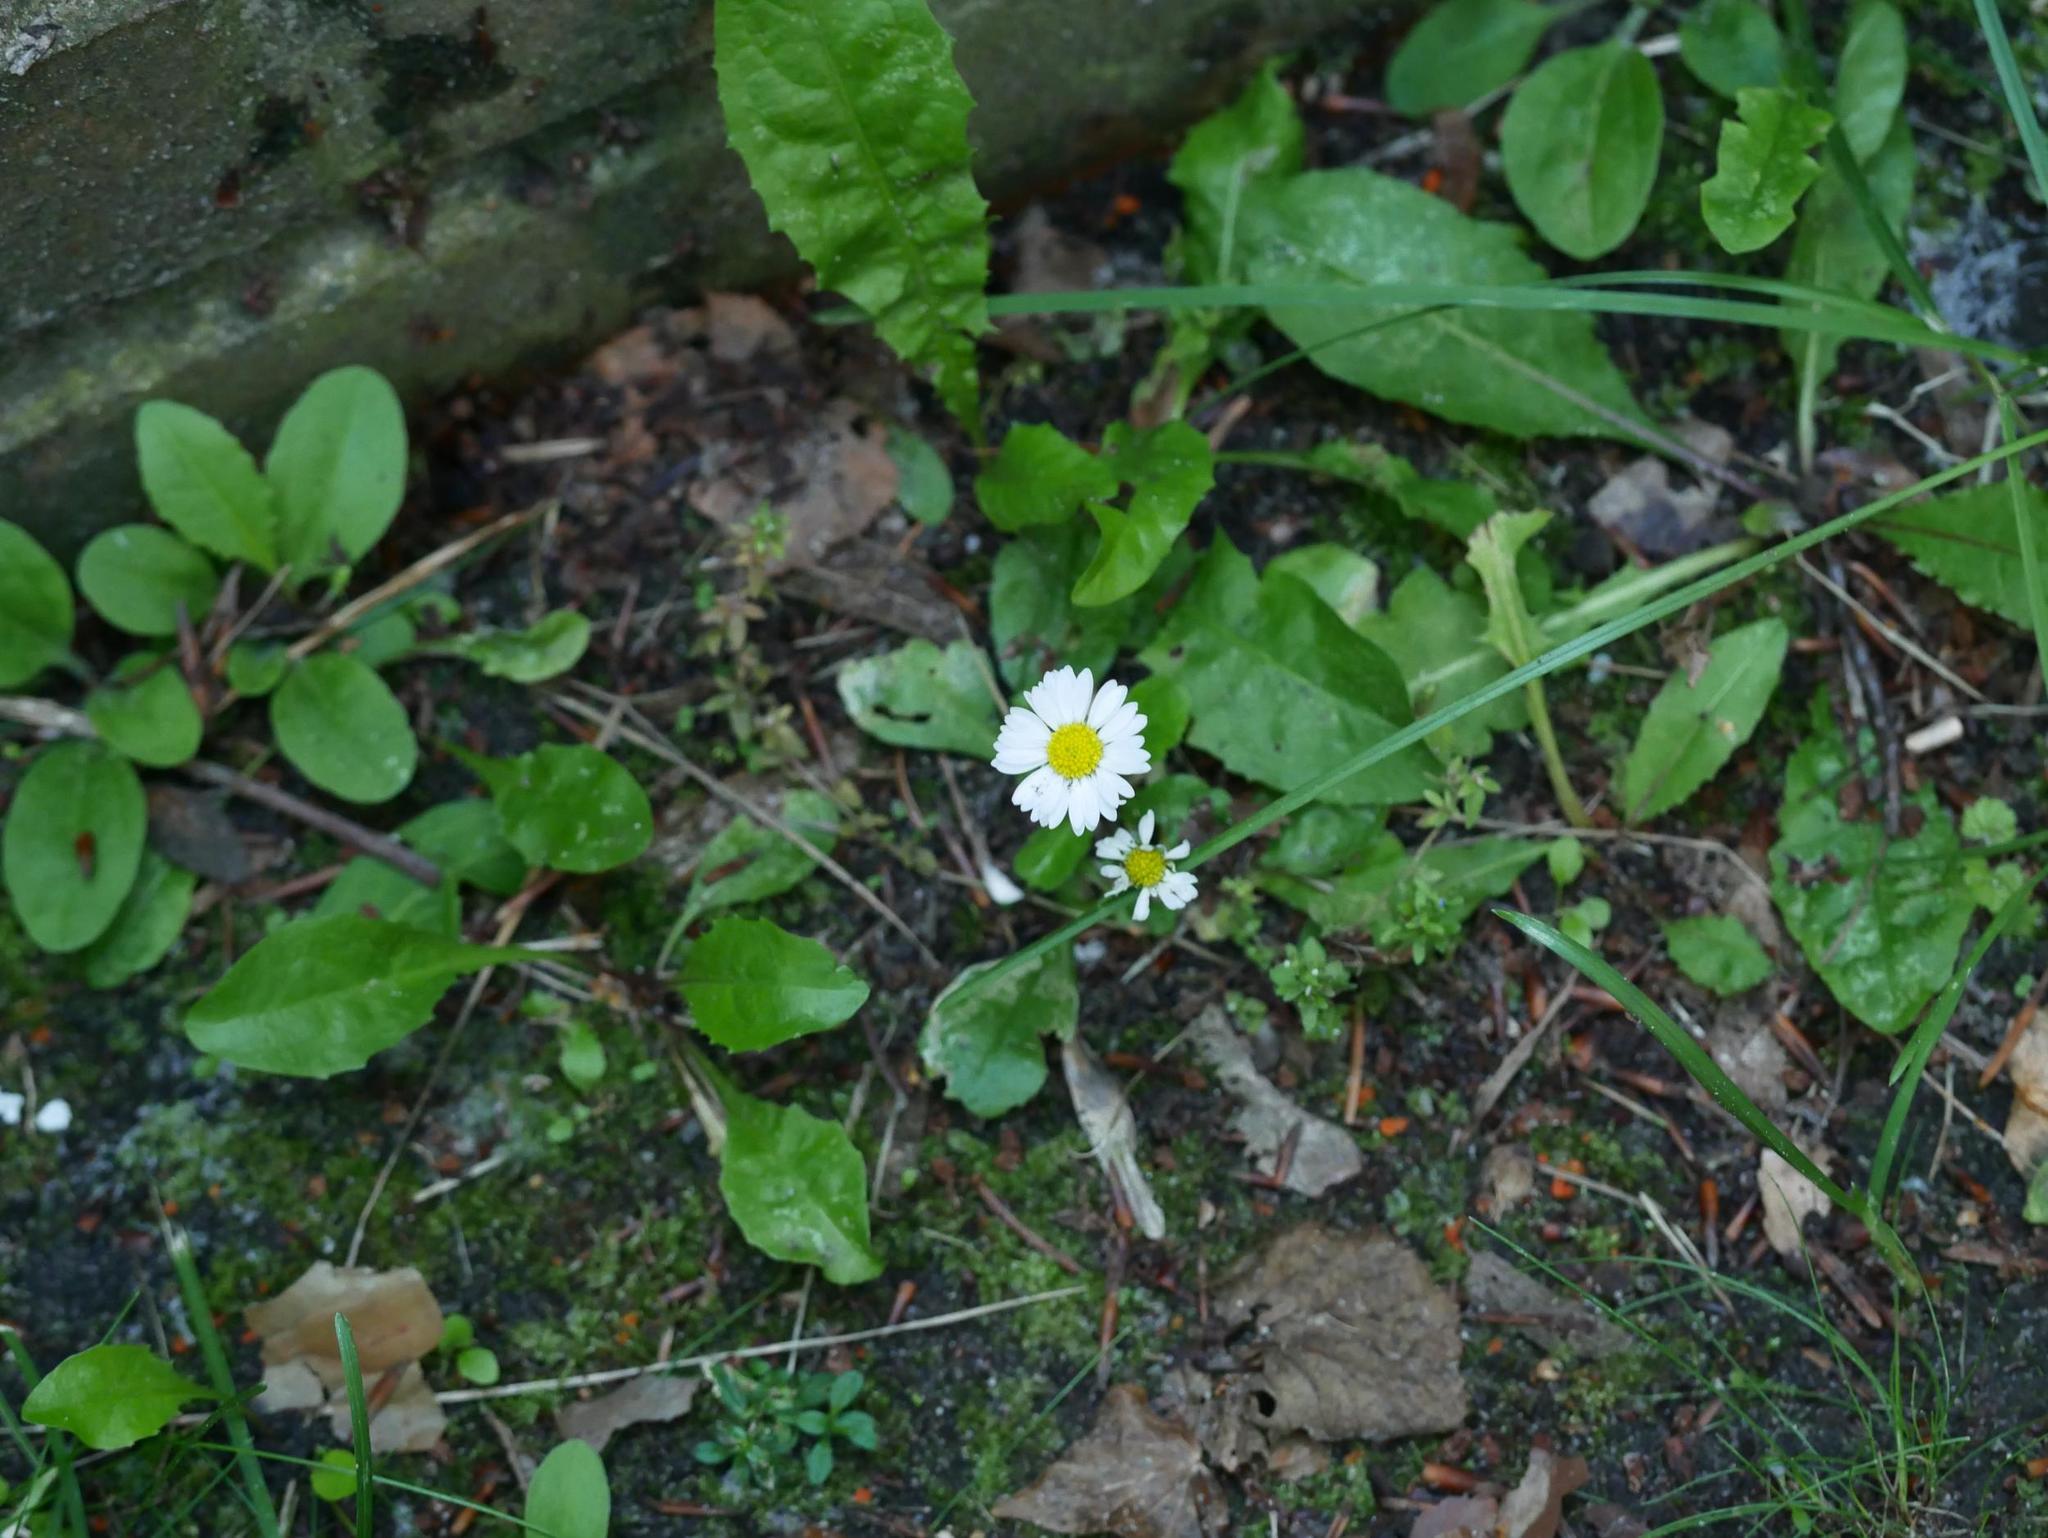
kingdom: Plantae
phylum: Tracheophyta
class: Magnoliopsida
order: Asterales
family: Asteraceae
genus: Bellis
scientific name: Bellis perennis
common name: Lawndaisy
